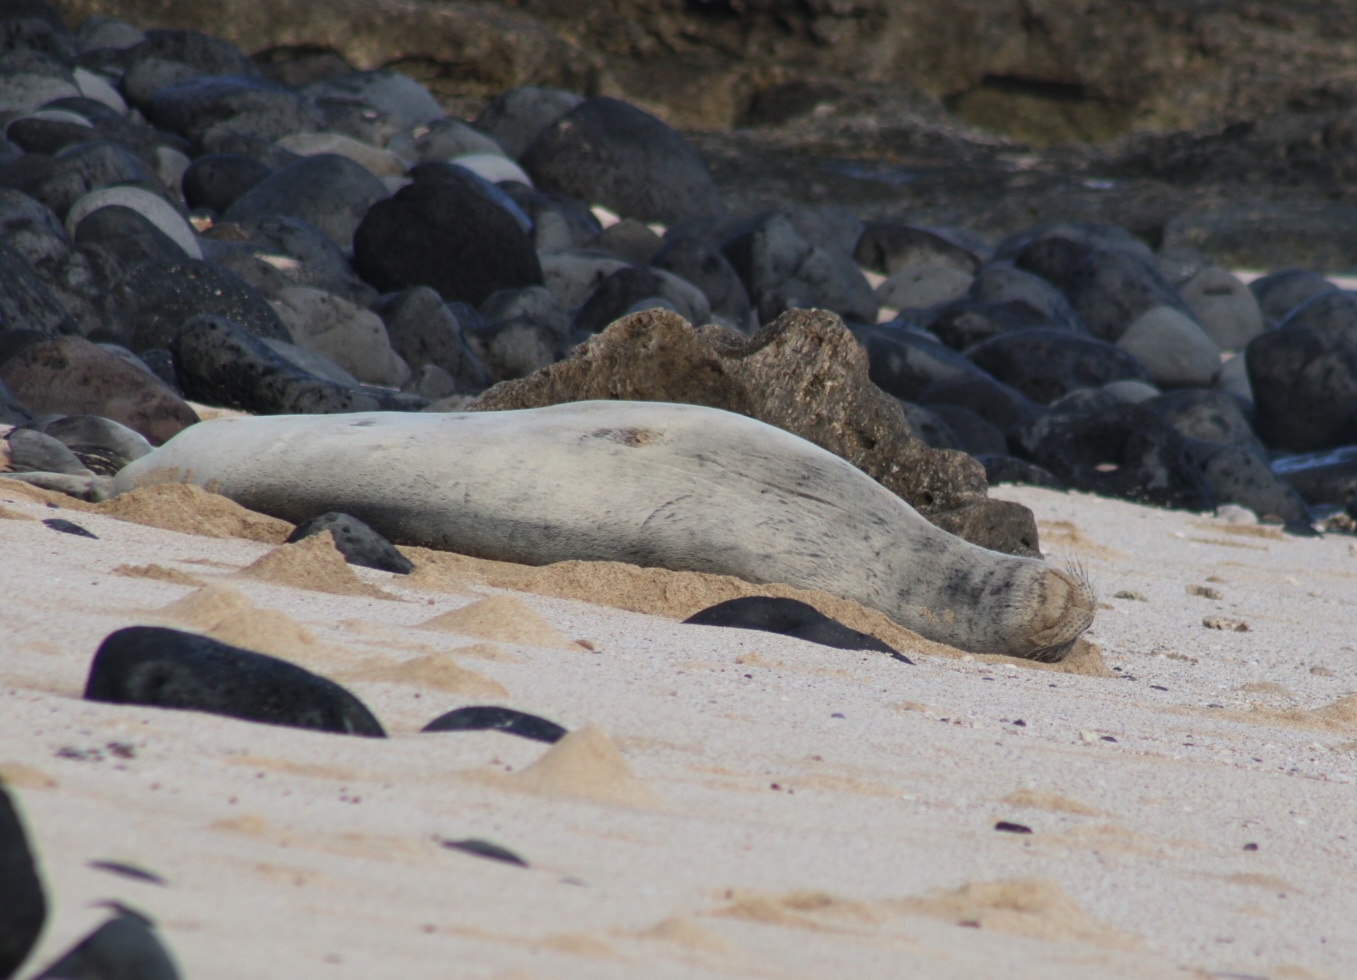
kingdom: Animalia
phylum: Chordata
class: Mammalia
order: Carnivora
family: Phocidae
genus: Neomonachus
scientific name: Neomonachus schauinslandi
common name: Hawaiian monk seal
